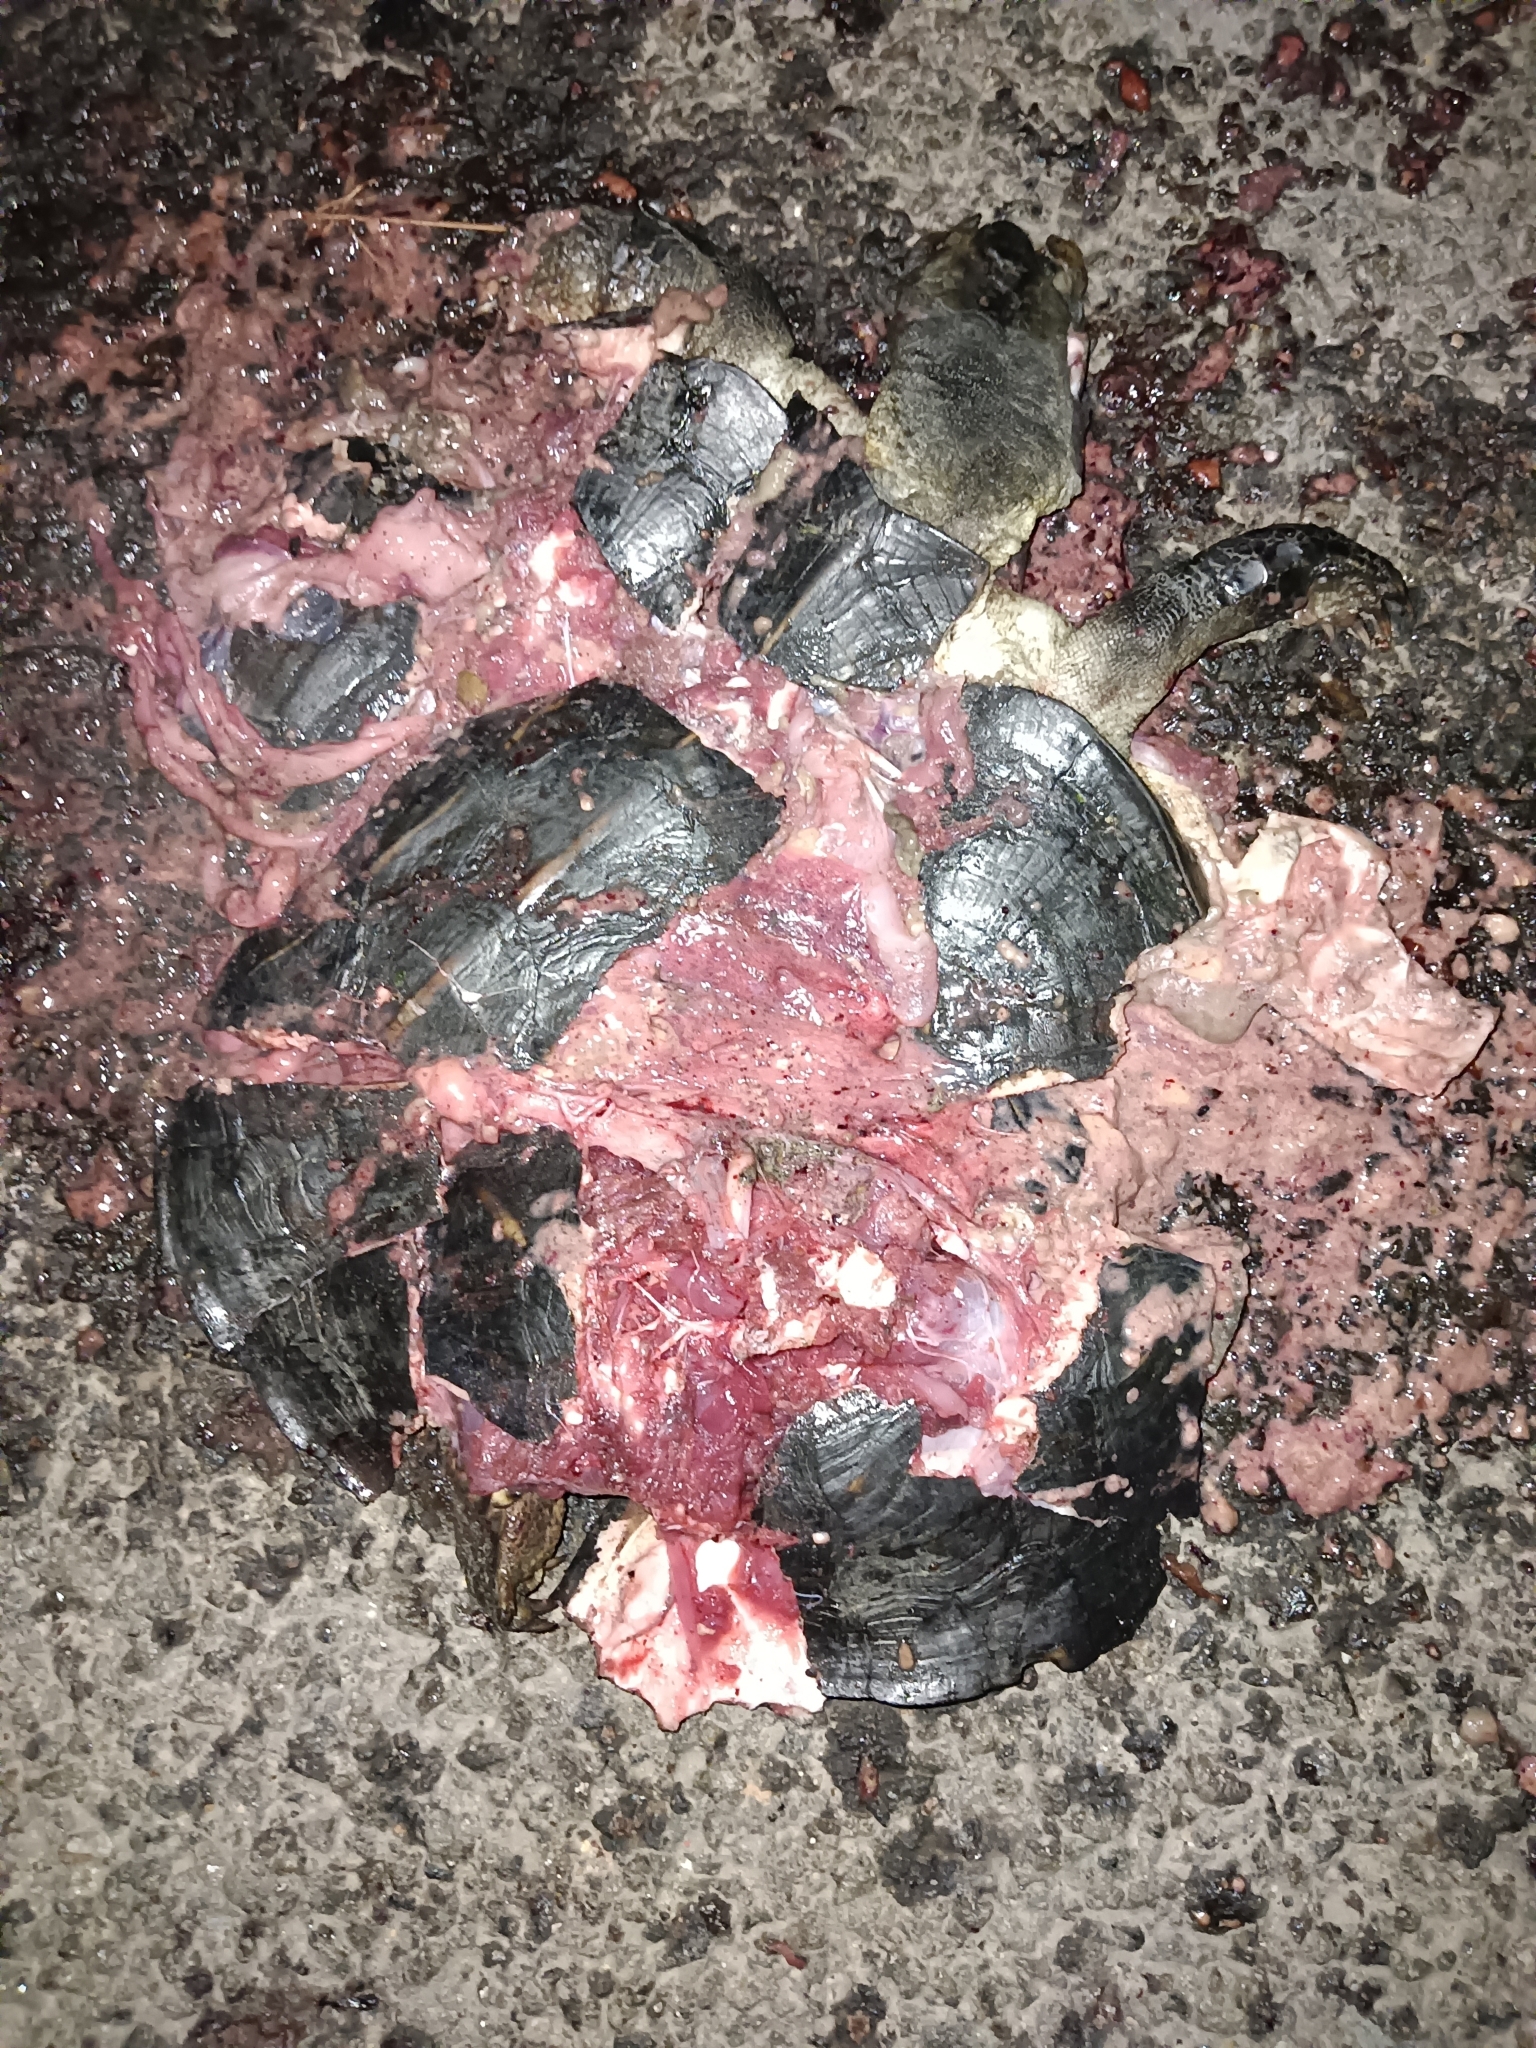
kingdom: Animalia
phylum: Chordata
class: Testudines
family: Geoemydidae
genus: Melanochelys
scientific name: Melanochelys trijuga
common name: Indian black turtle
